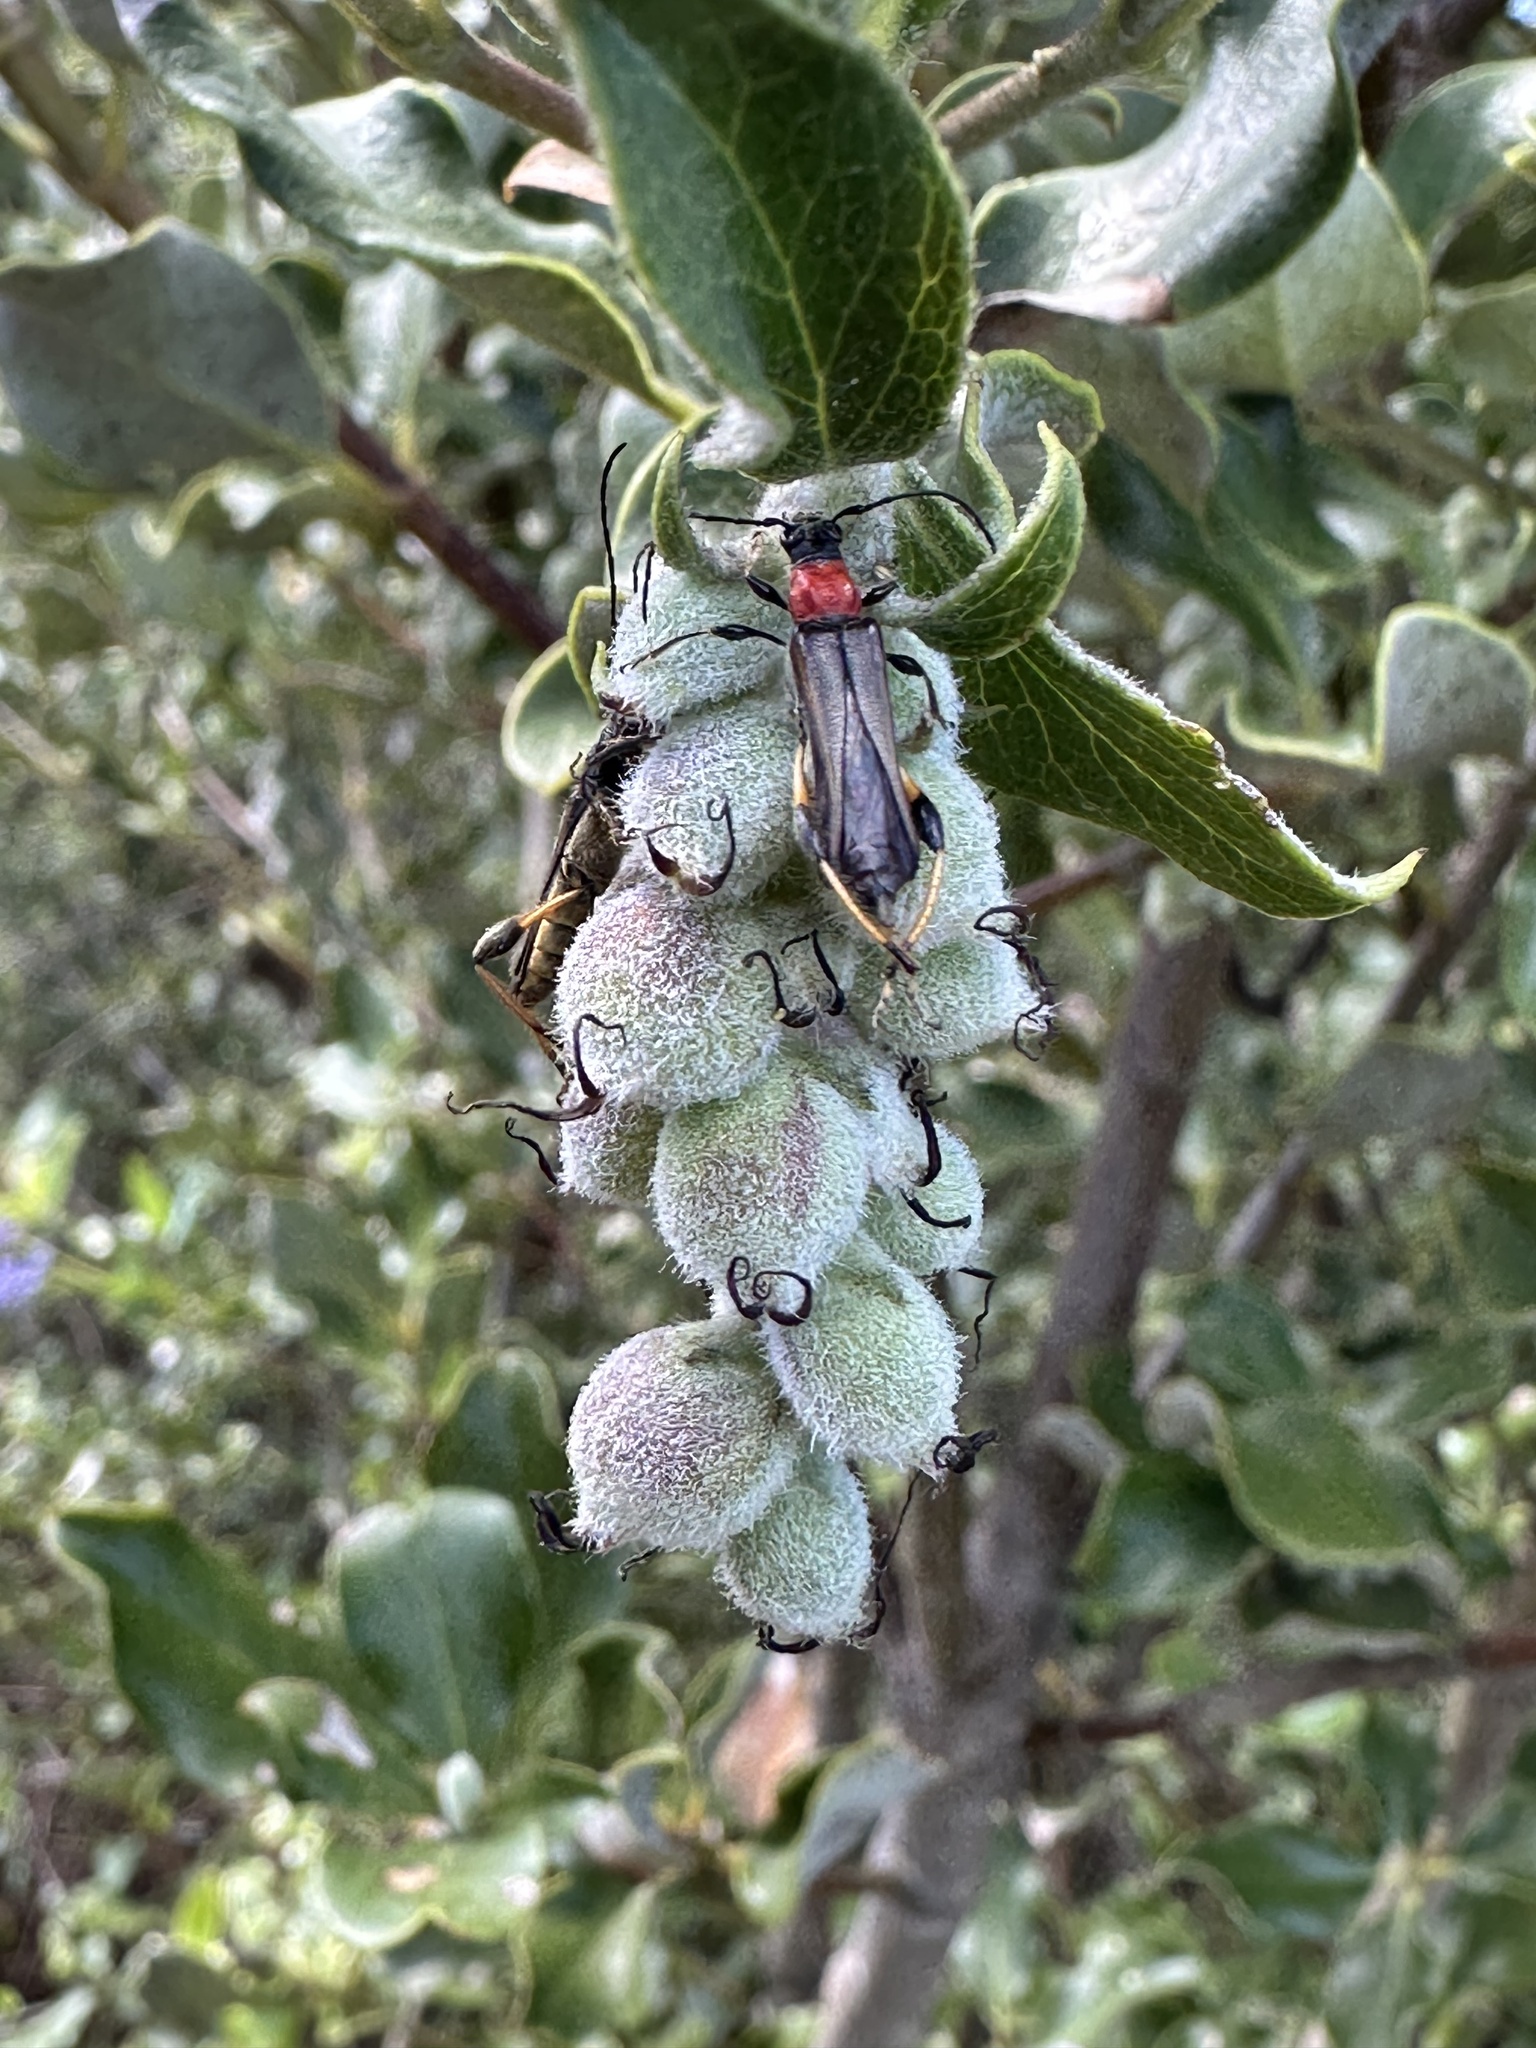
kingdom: Animalia
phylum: Arthropoda
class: Insecta
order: Coleoptera
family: Cerambycidae
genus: Callimoxys
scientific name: Callimoxys fuscipennis
